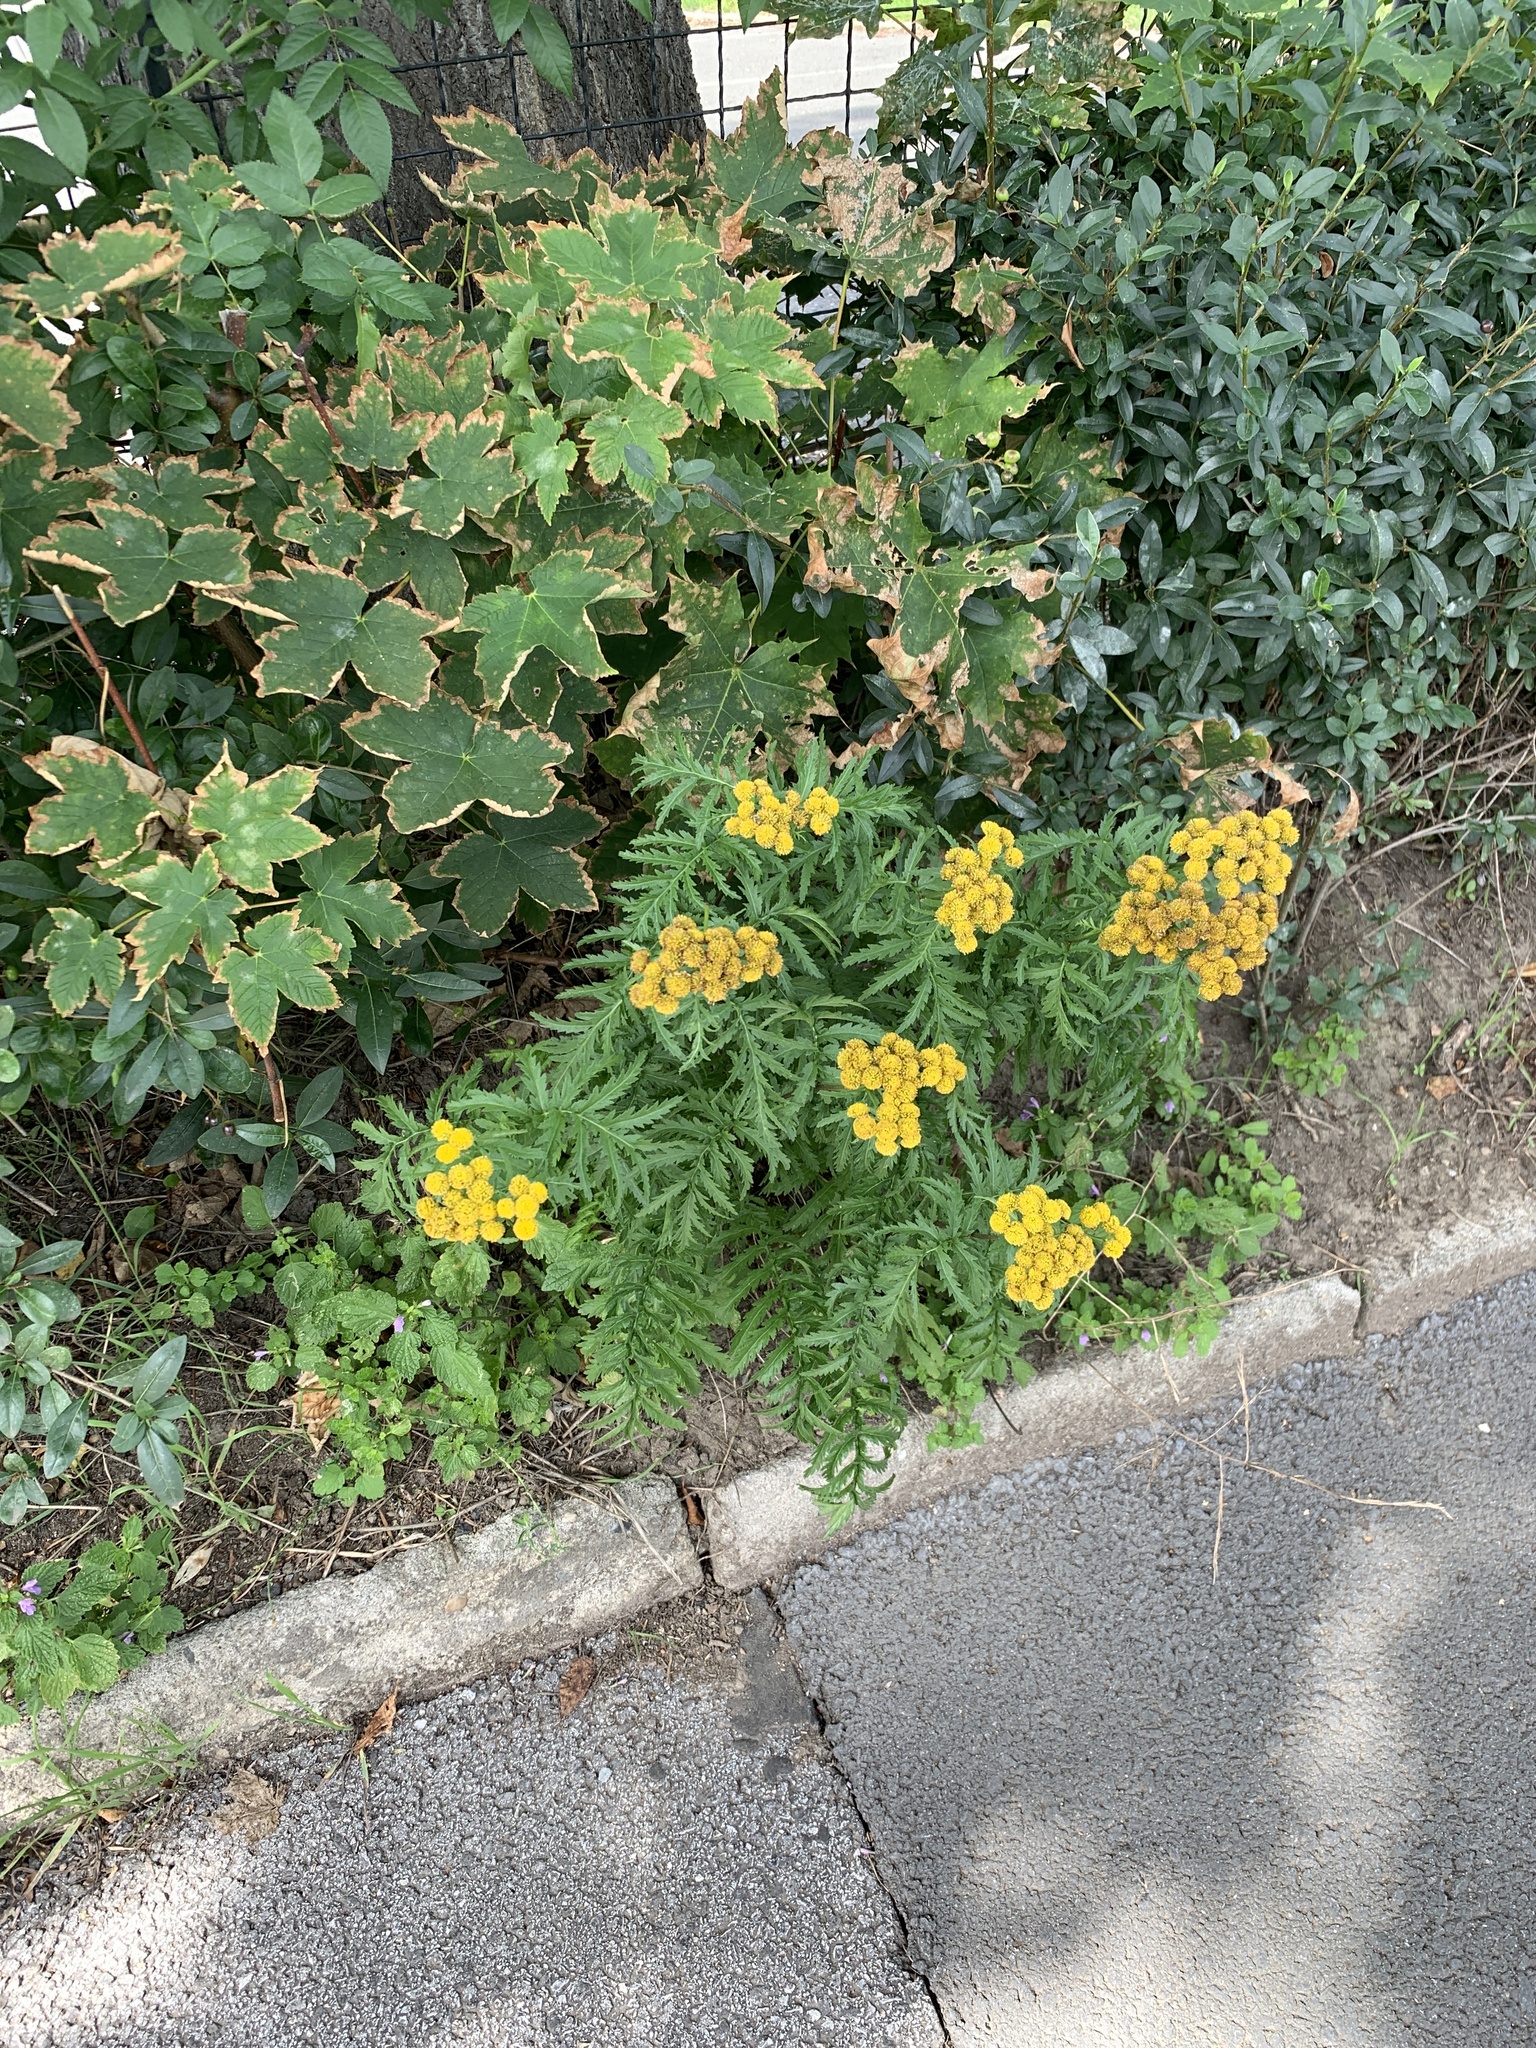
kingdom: Plantae
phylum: Tracheophyta
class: Magnoliopsida
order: Asterales
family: Asteraceae
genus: Tanacetum
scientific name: Tanacetum vulgare
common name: Common tansy
